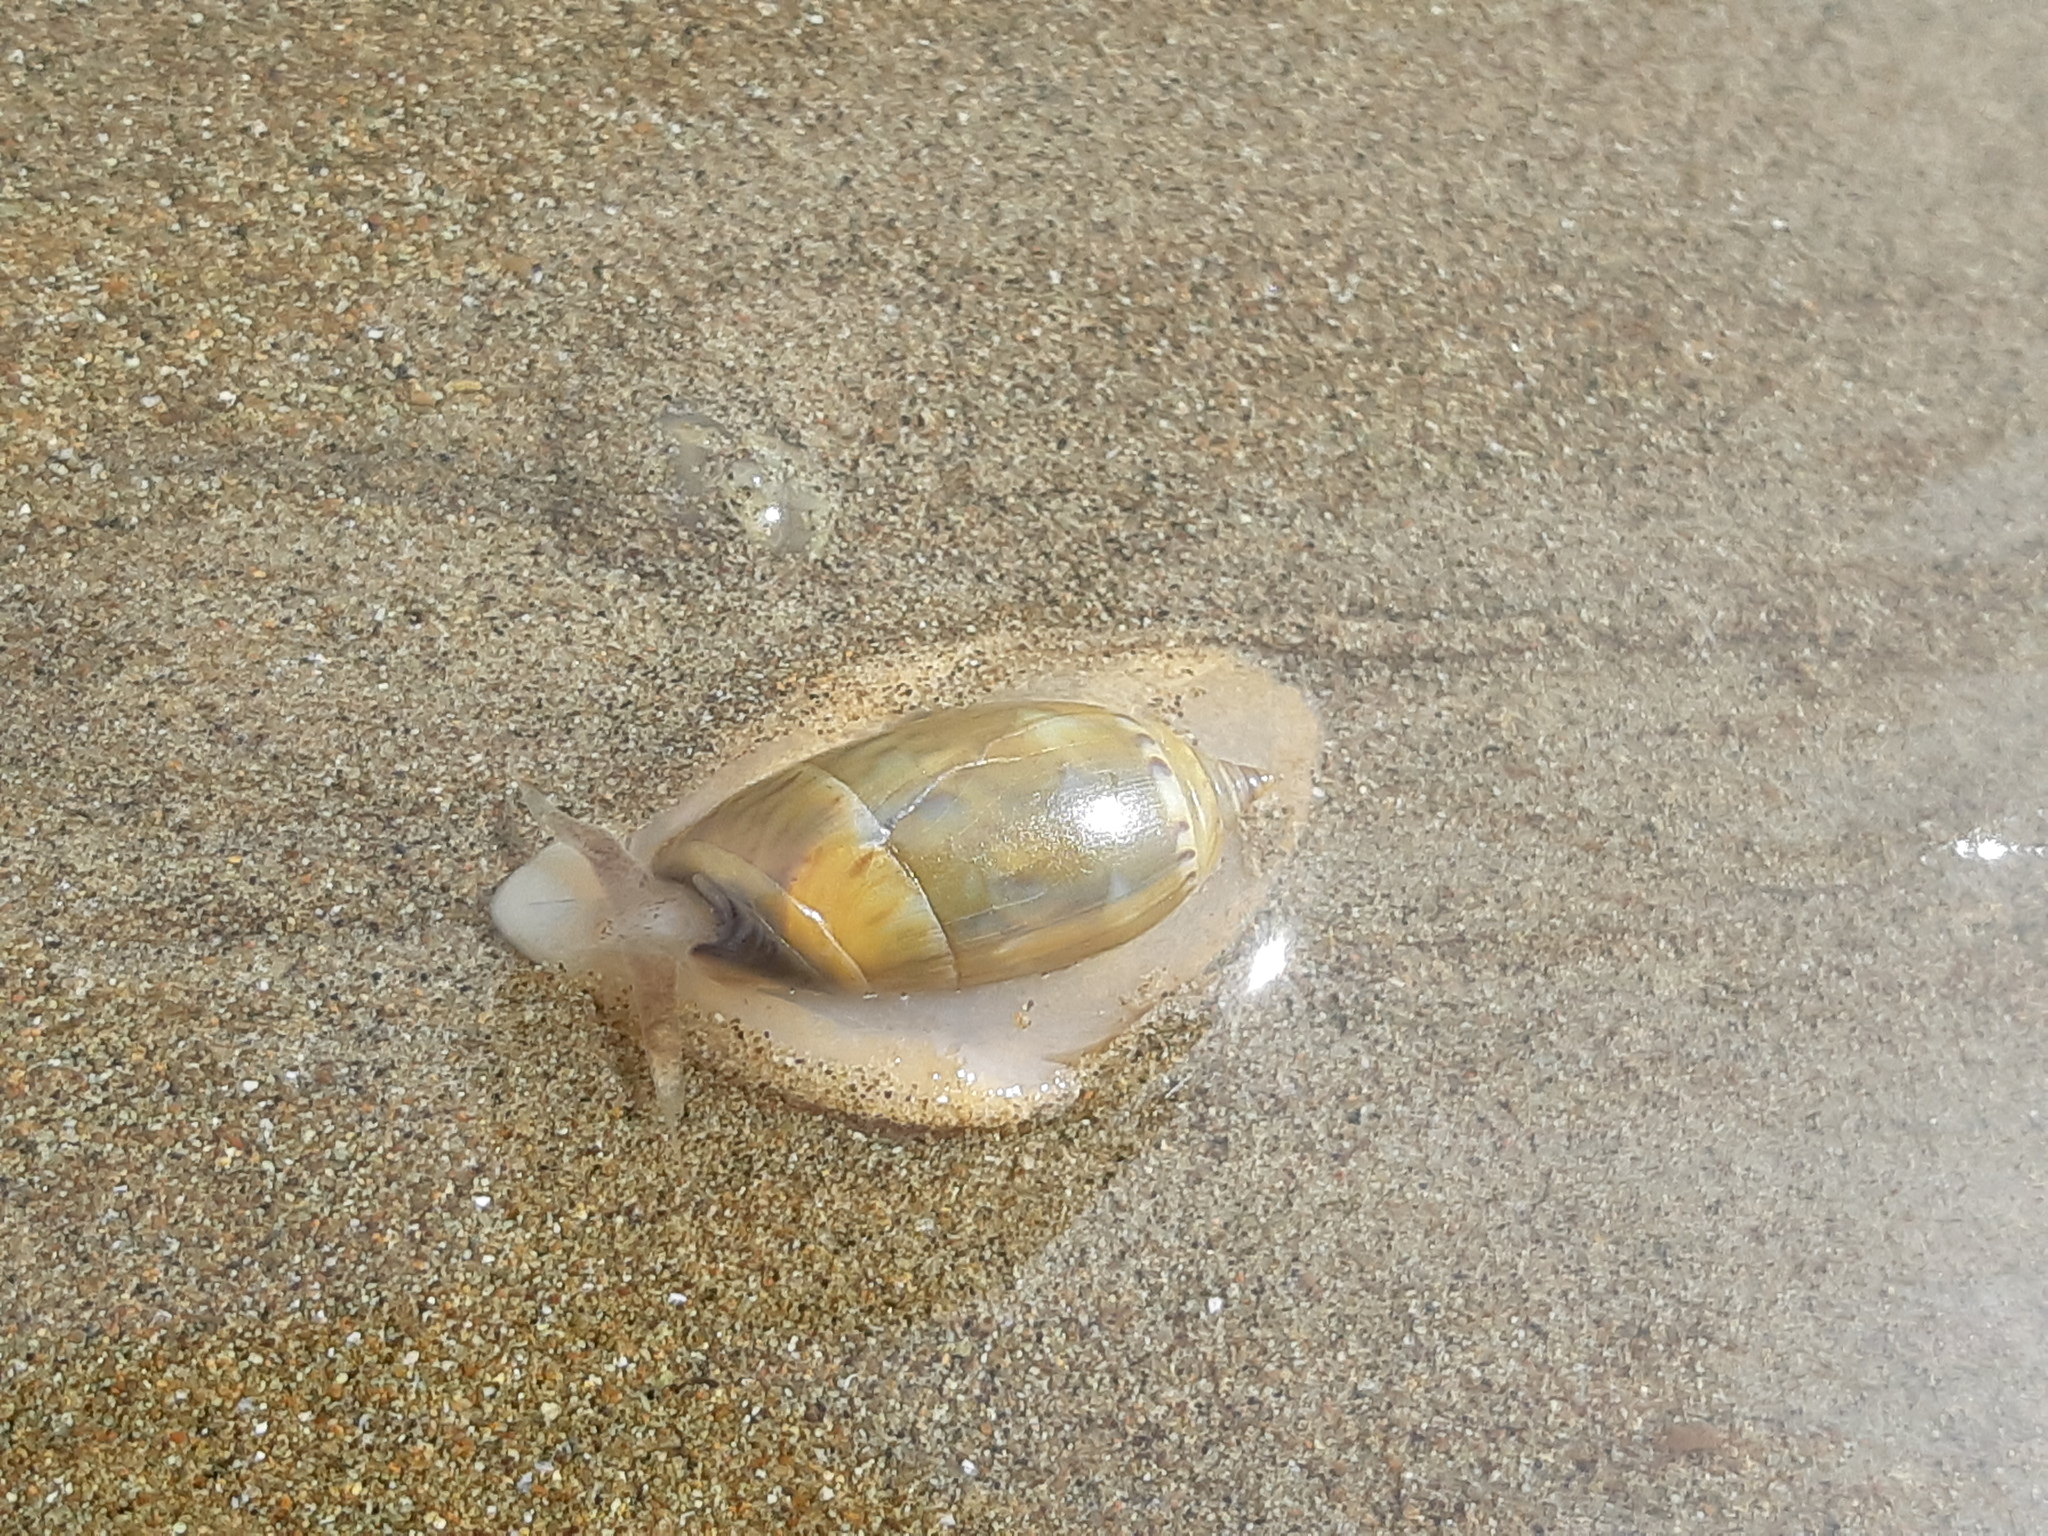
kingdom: Animalia
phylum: Mollusca
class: Gastropoda
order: Neogastropoda
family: Olividae
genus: Oliva
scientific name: Oliva undatella
